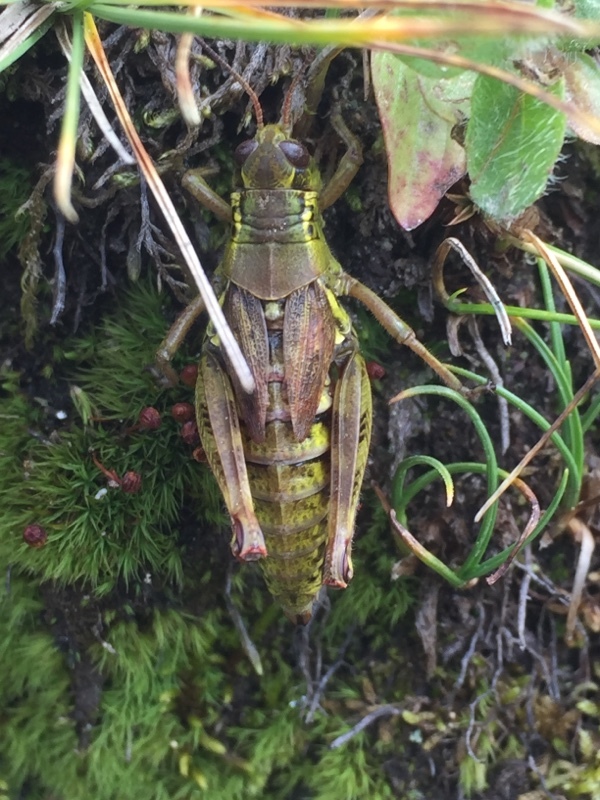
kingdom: Animalia
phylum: Arthropoda
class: Insecta
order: Orthoptera
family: Acrididae
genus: Bohemanella
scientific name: Bohemanella frigida
